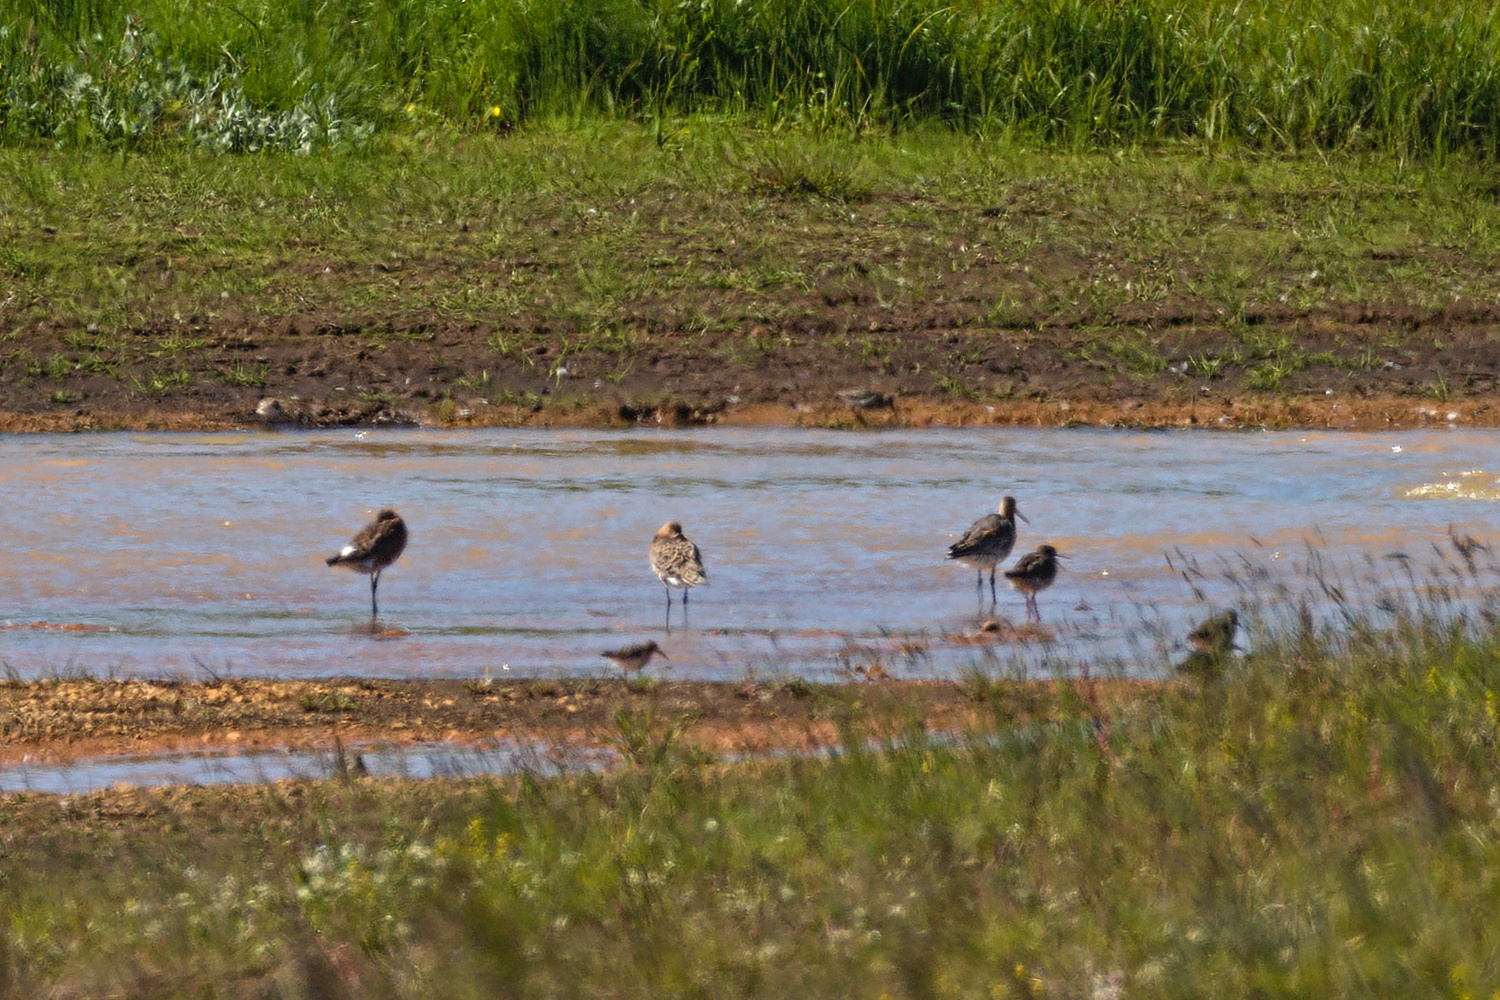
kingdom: Animalia
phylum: Chordata
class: Aves
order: Charadriiformes
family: Scolopacidae
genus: Limosa
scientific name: Limosa limosa
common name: Black-tailed godwit
